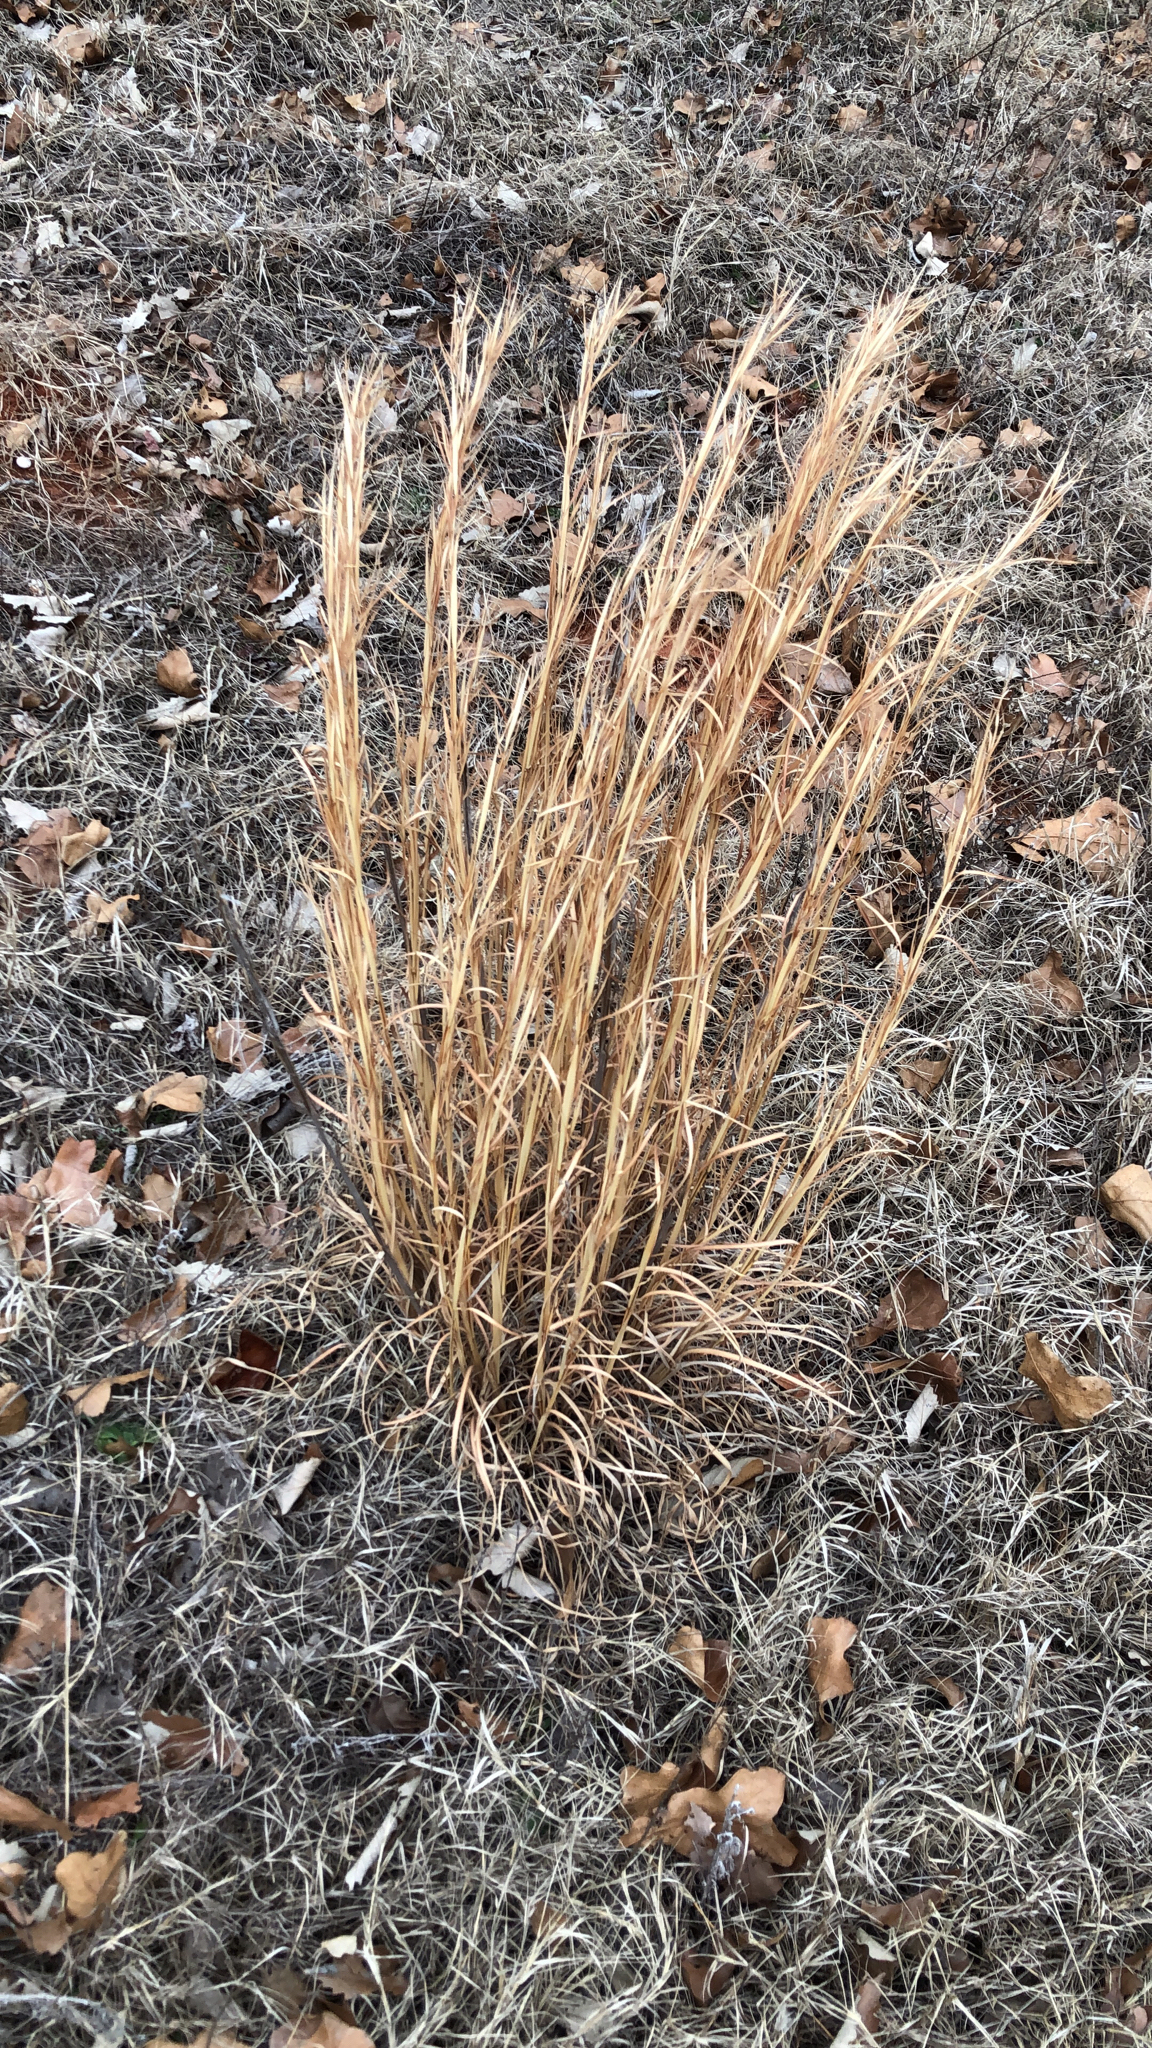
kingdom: Plantae
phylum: Tracheophyta
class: Liliopsida
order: Poales
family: Poaceae
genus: Andropogon
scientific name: Andropogon virginicus
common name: Broomsedge bluestem
